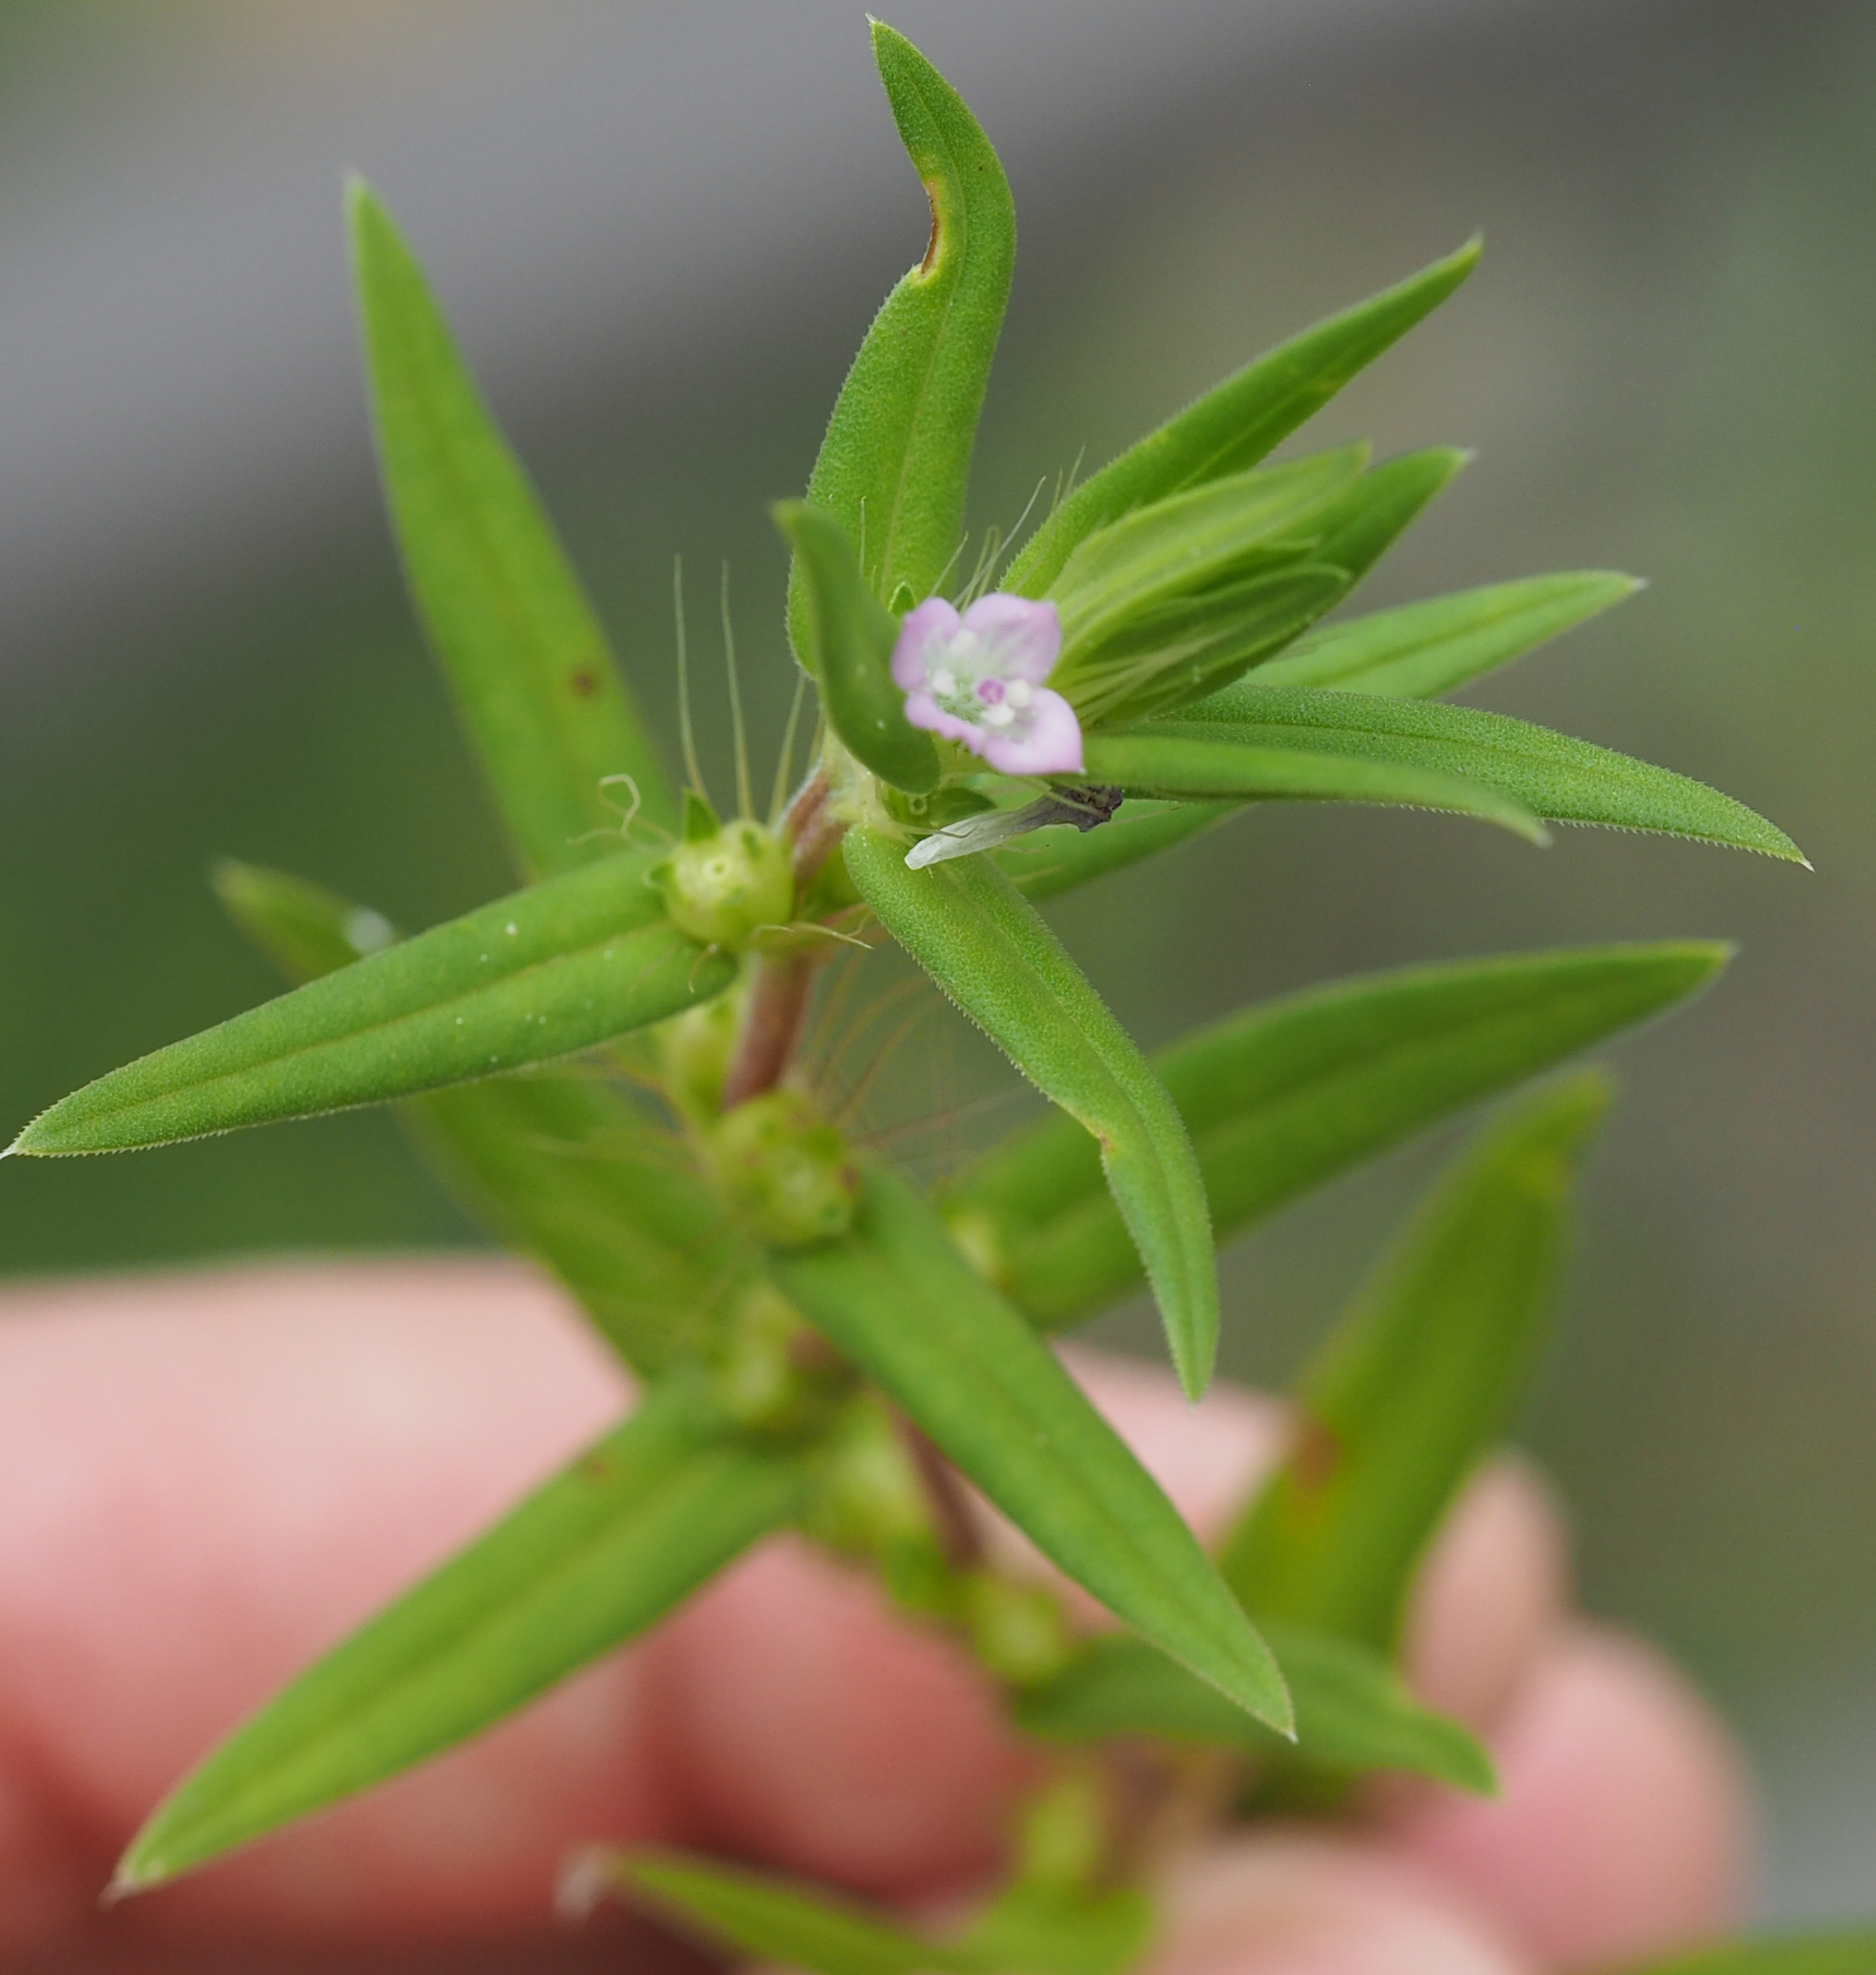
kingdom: Plantae
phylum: Tracheophyta
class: Magnoliopsida
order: Gentianales
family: Rubiaceae
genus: Hexasepalum
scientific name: Hexasepalum teres
